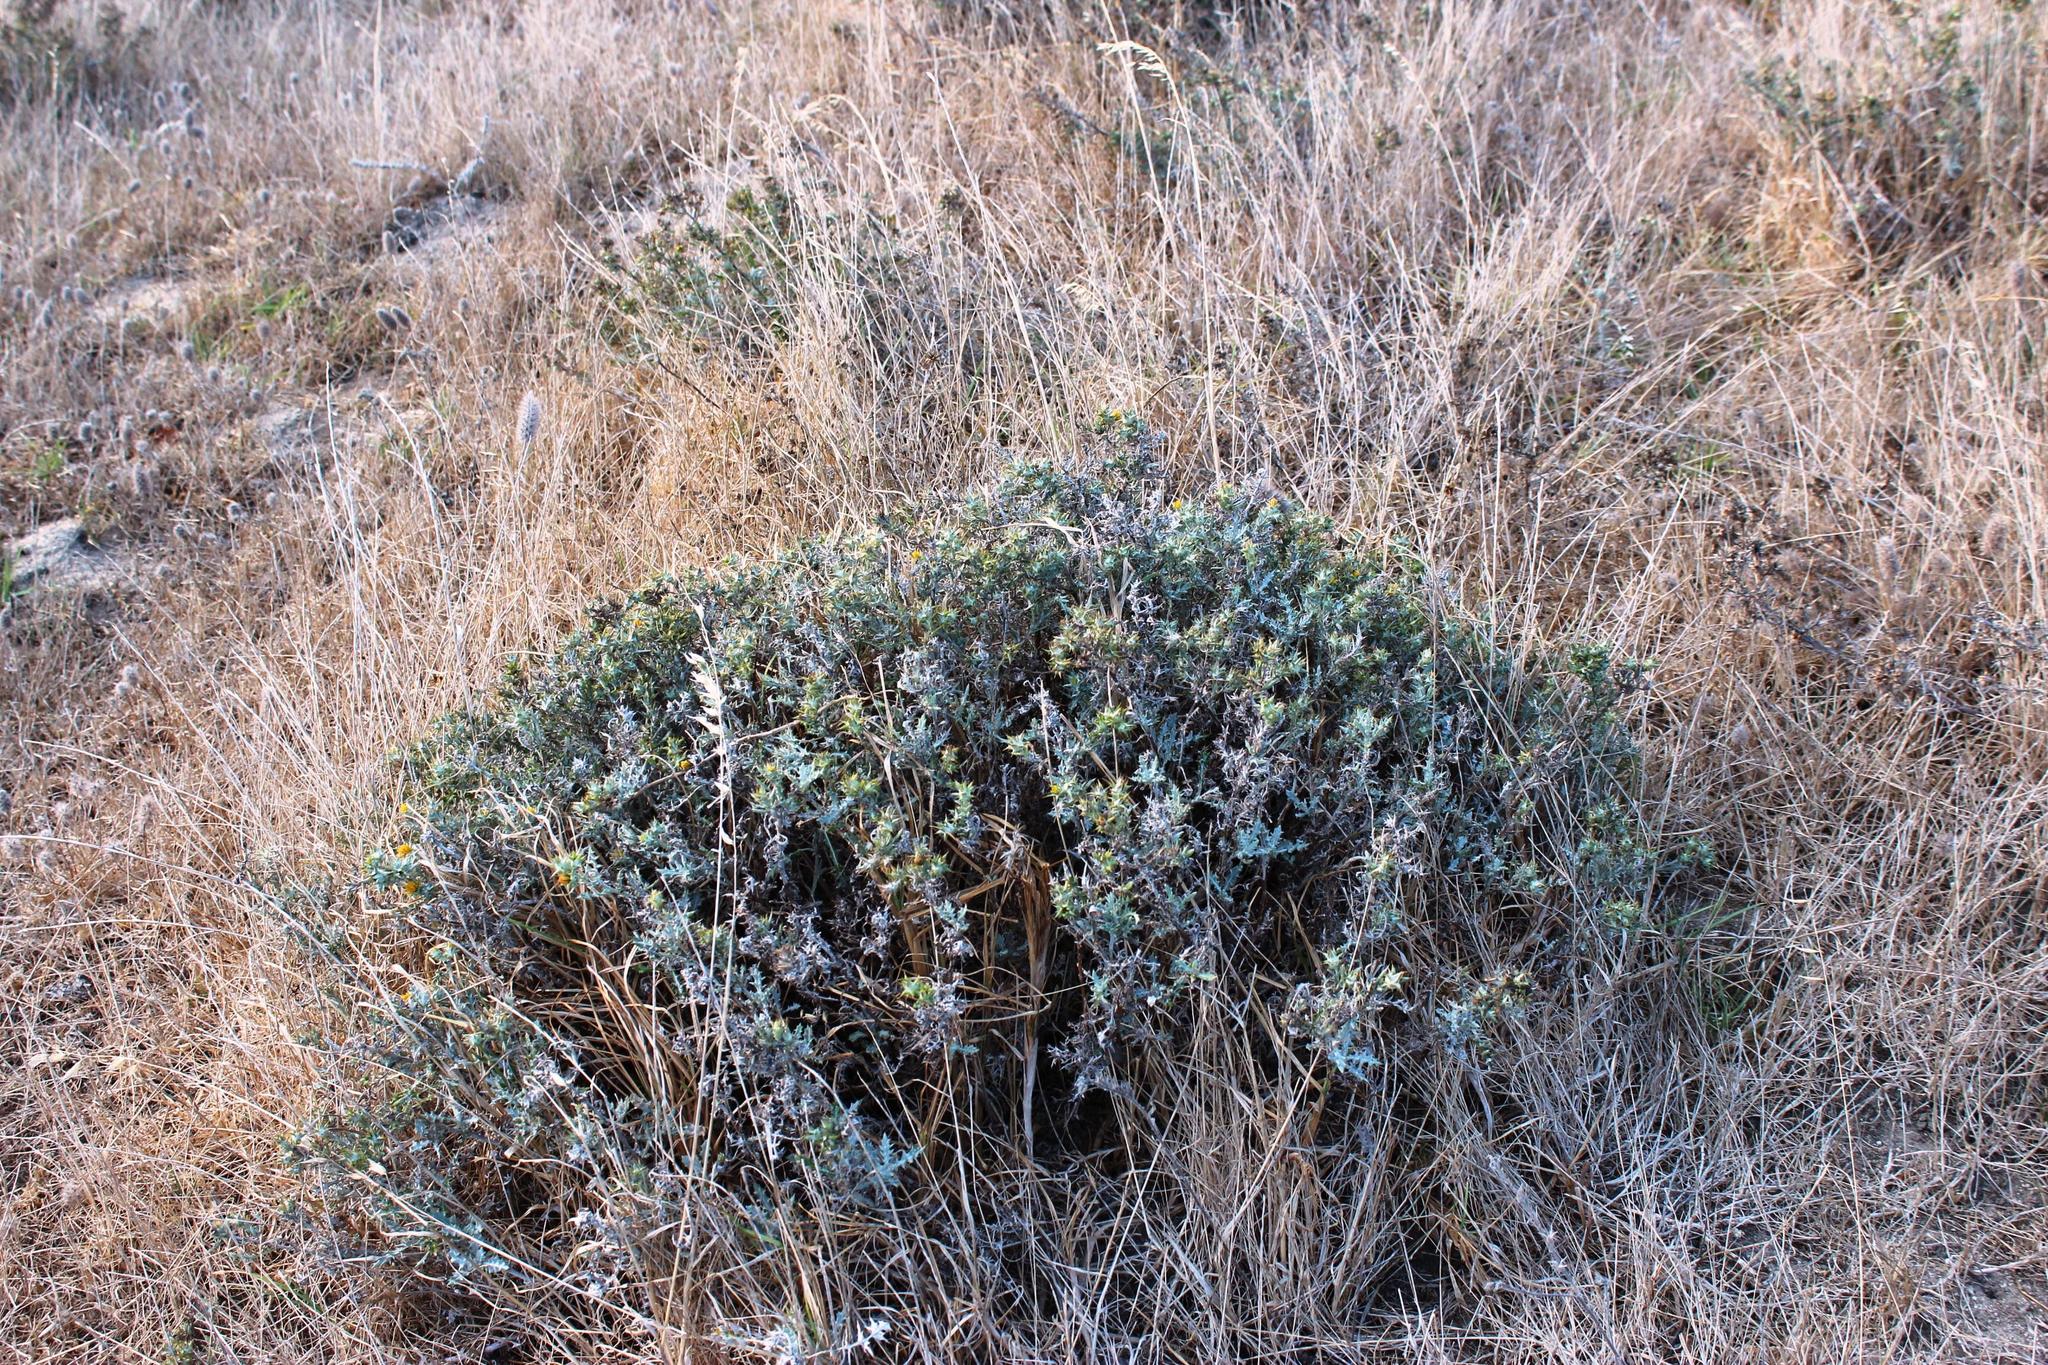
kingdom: Plantae
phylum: Tracheophyta
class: Magnoliopsida
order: Asterales
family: Asteraceae
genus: Berkheya
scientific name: Berkheya rigida
